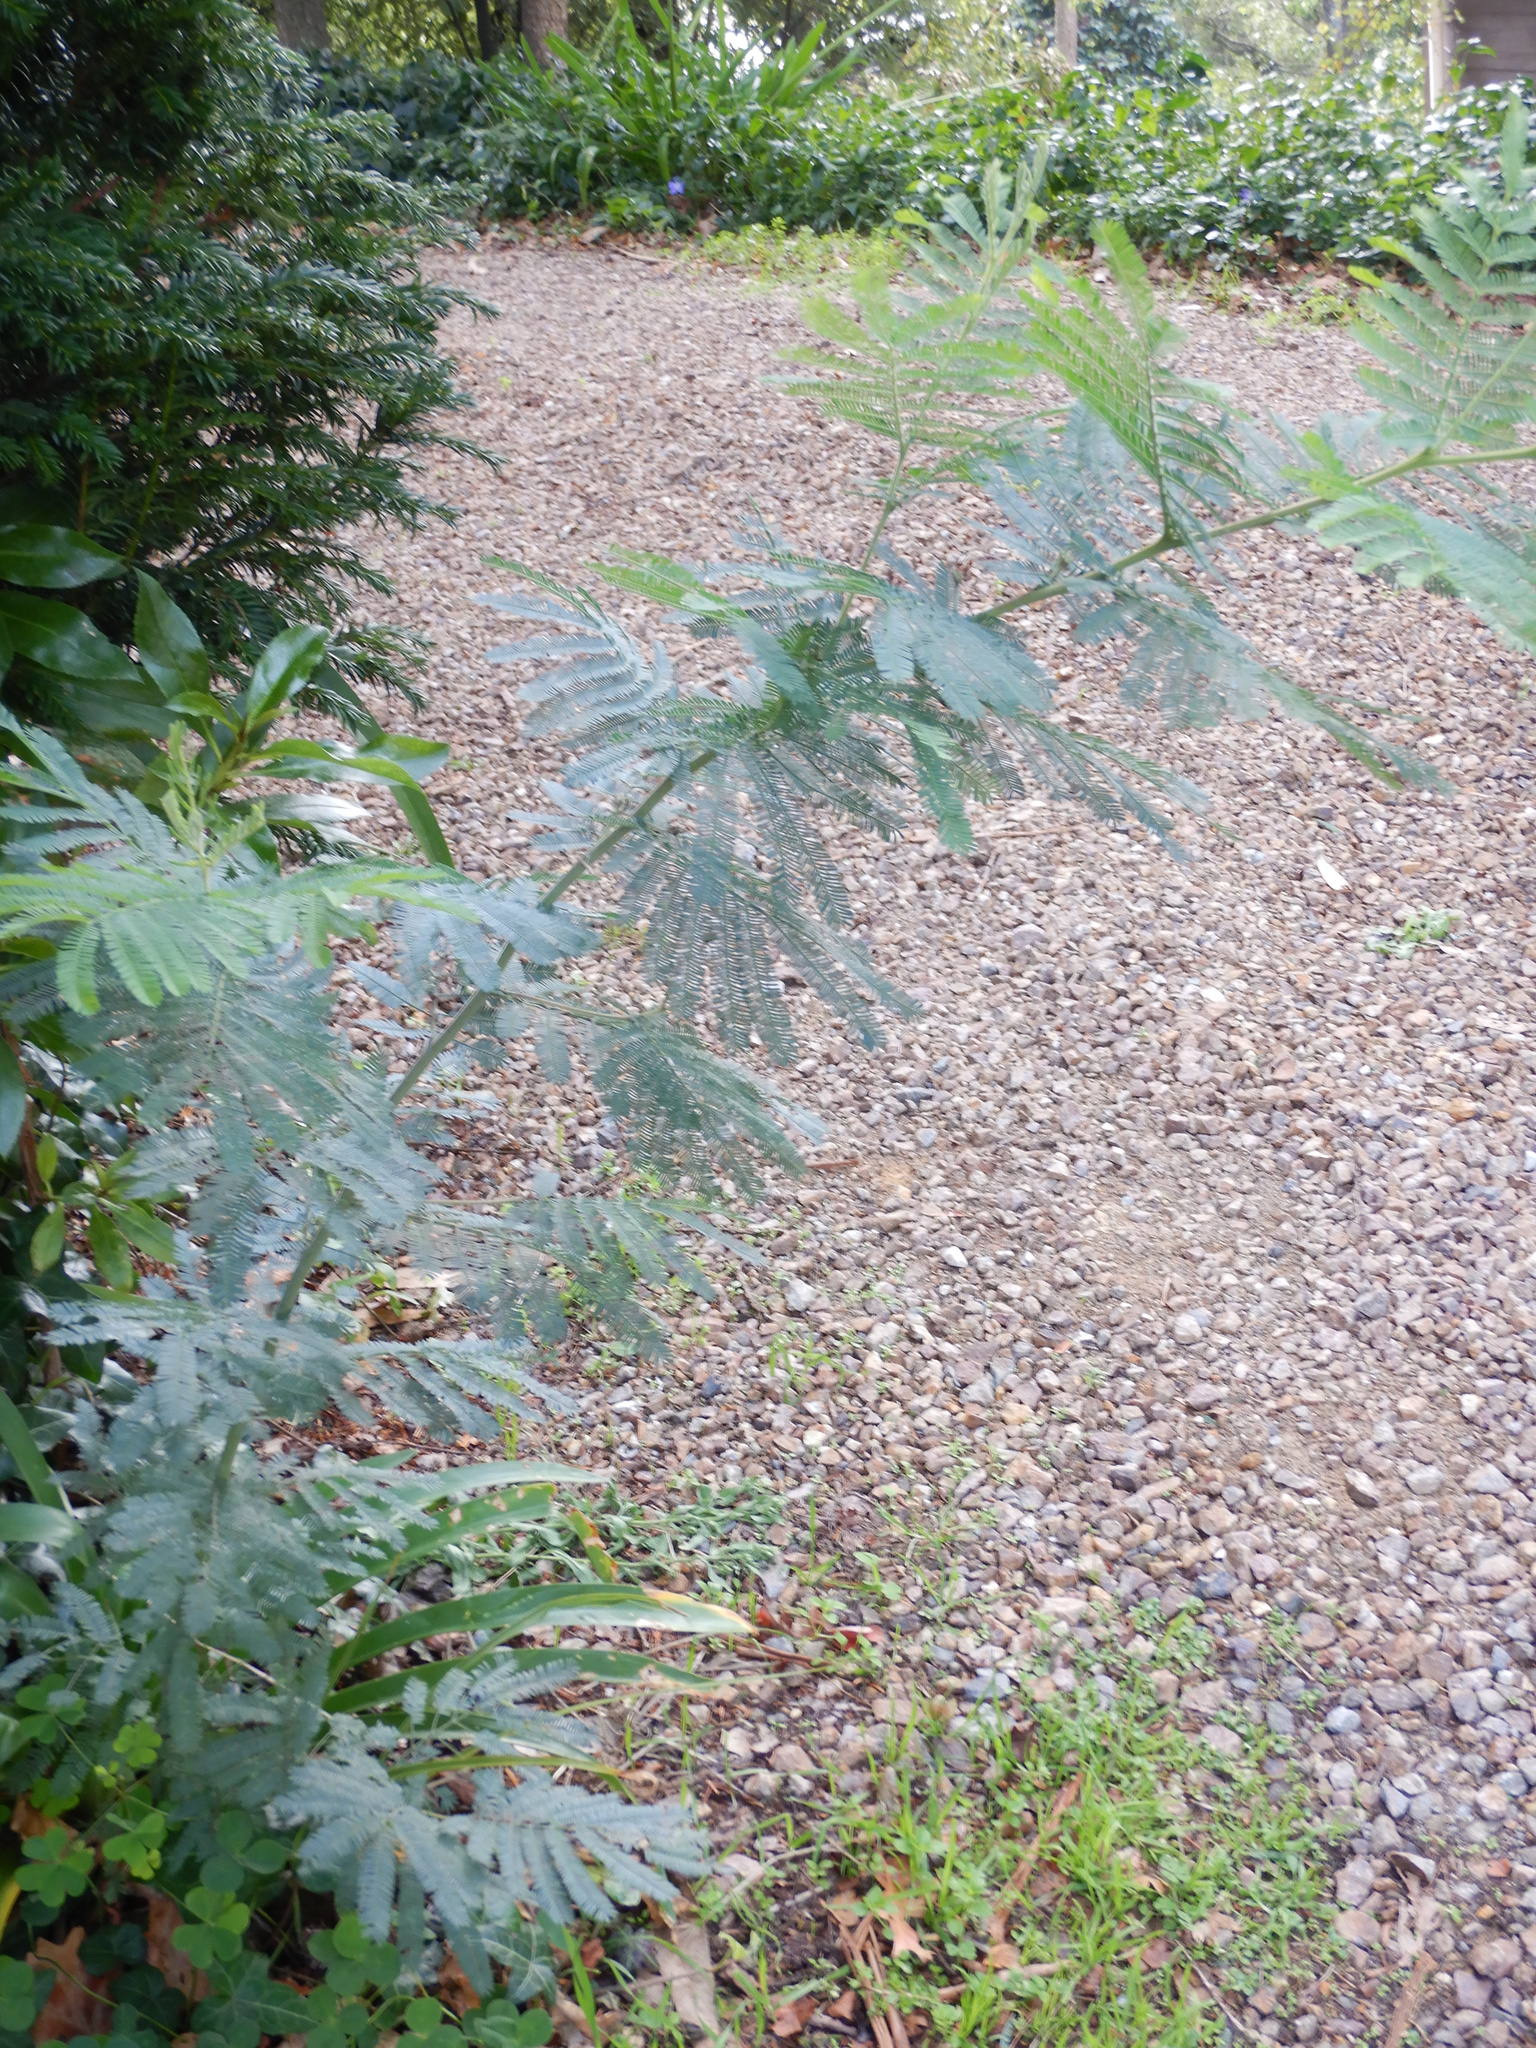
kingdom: Plantae
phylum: Tracheophyta
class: Magnoliopsida
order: Fabales
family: Fabaceae
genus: Acacia
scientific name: Acacia dealbata
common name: Silver wattle
